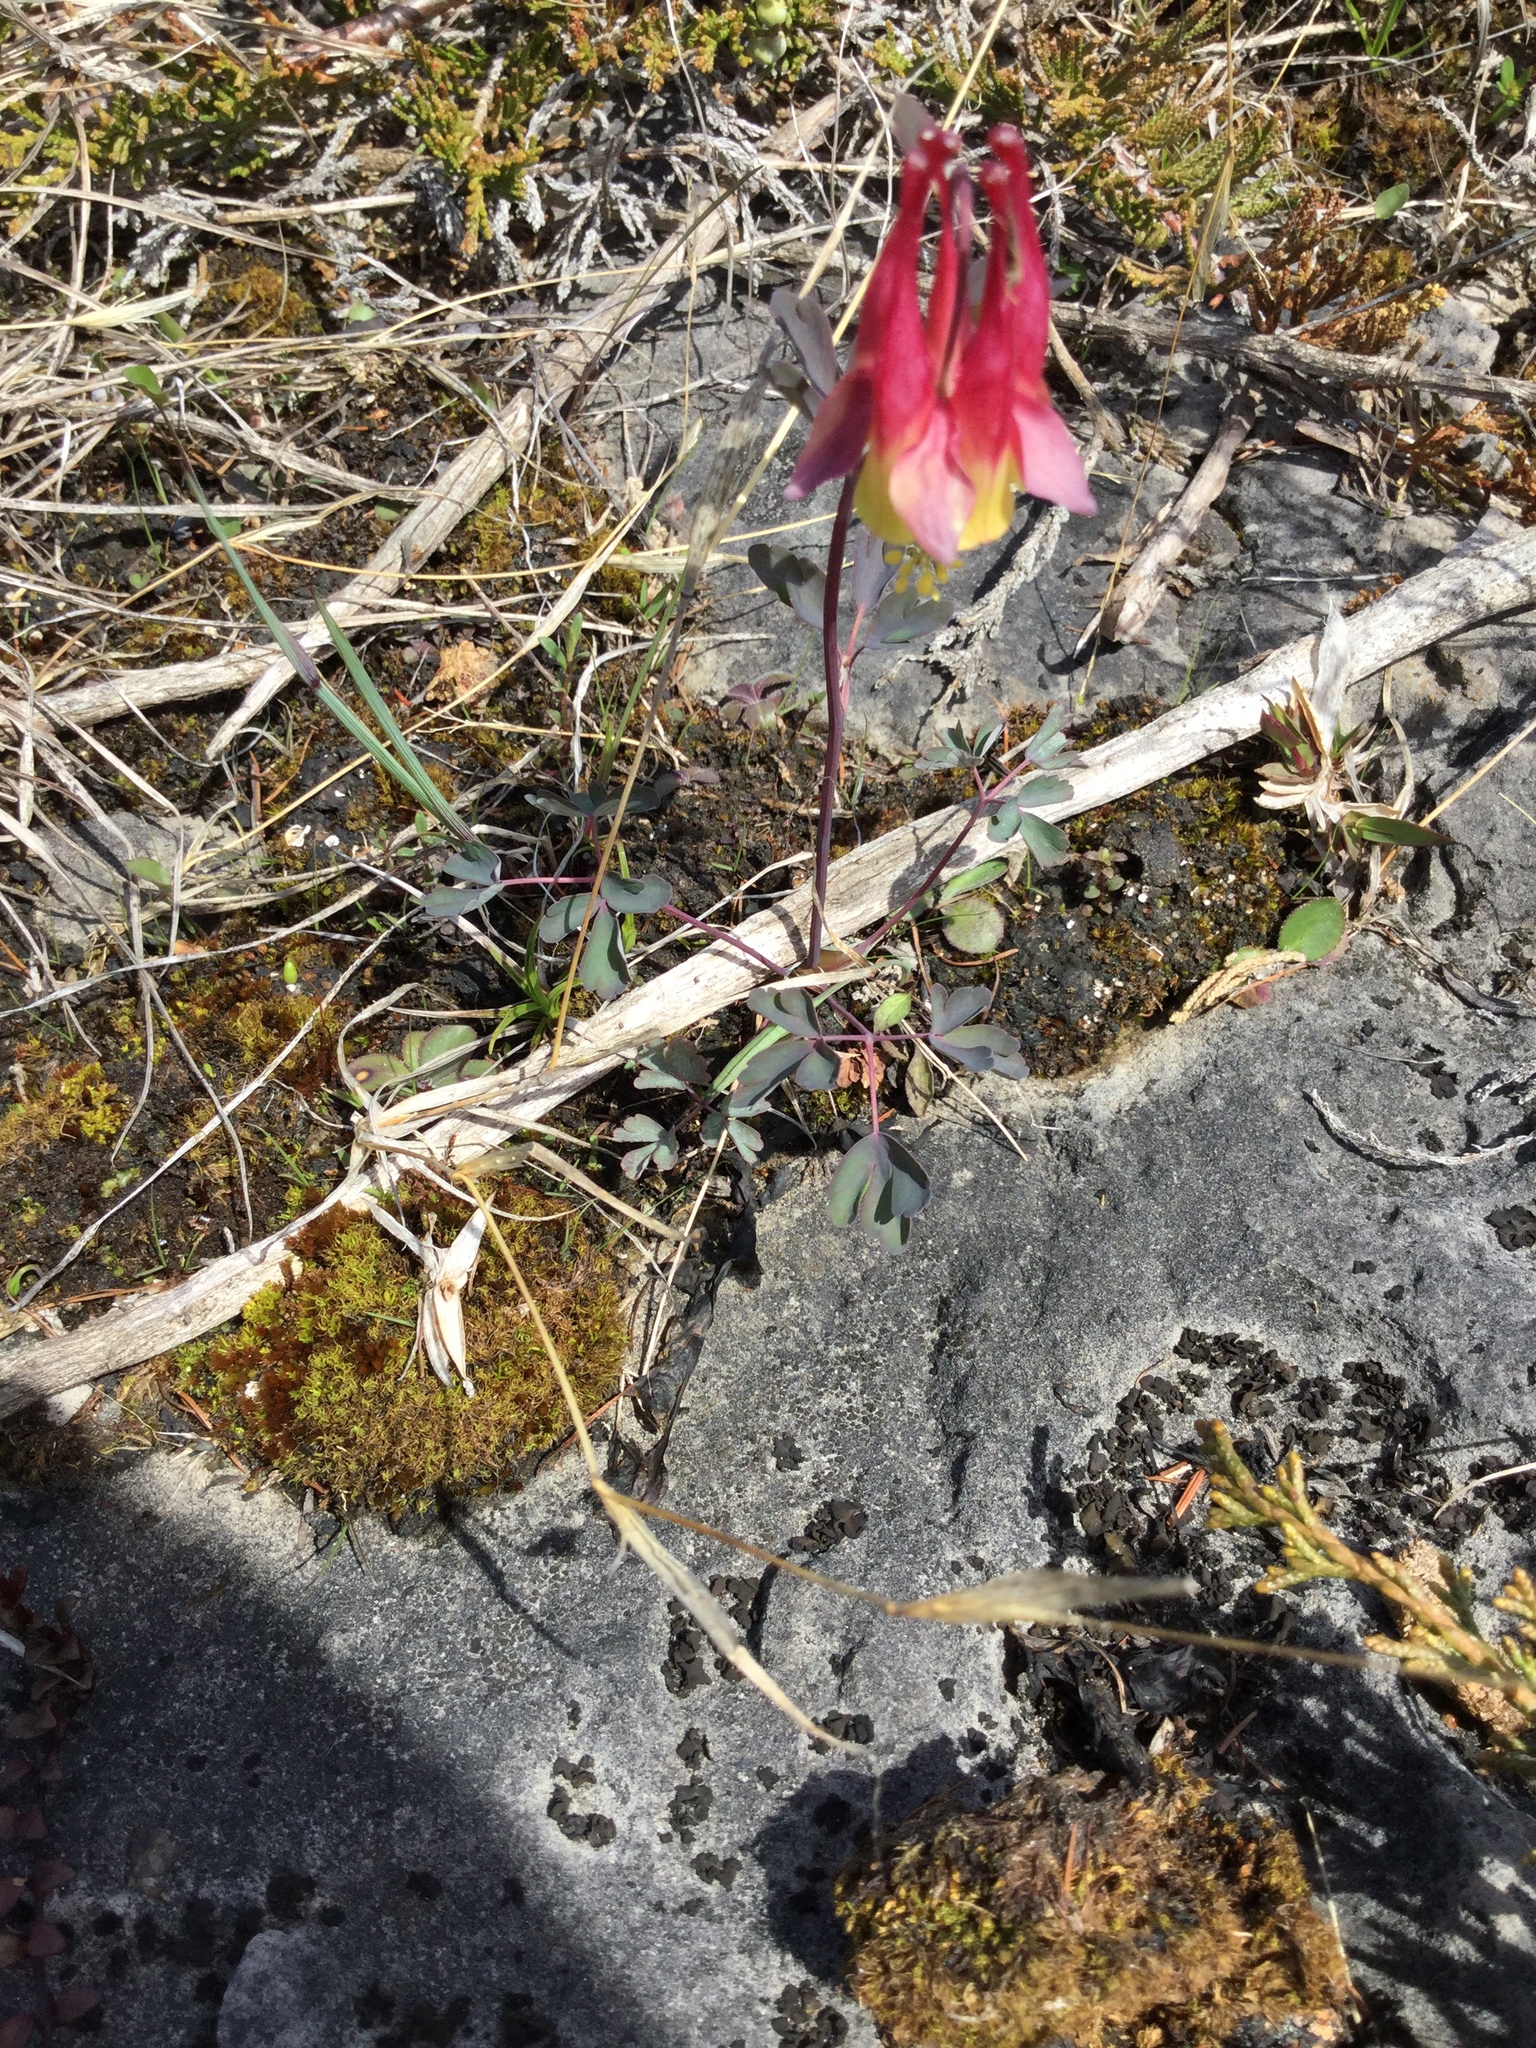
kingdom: Plantae
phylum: Tracheophyta
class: Magnoliopsida
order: Ranunculales
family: Ranunculaceae
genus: Aquilegia
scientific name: Aquilegia canadensis
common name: American columbine
